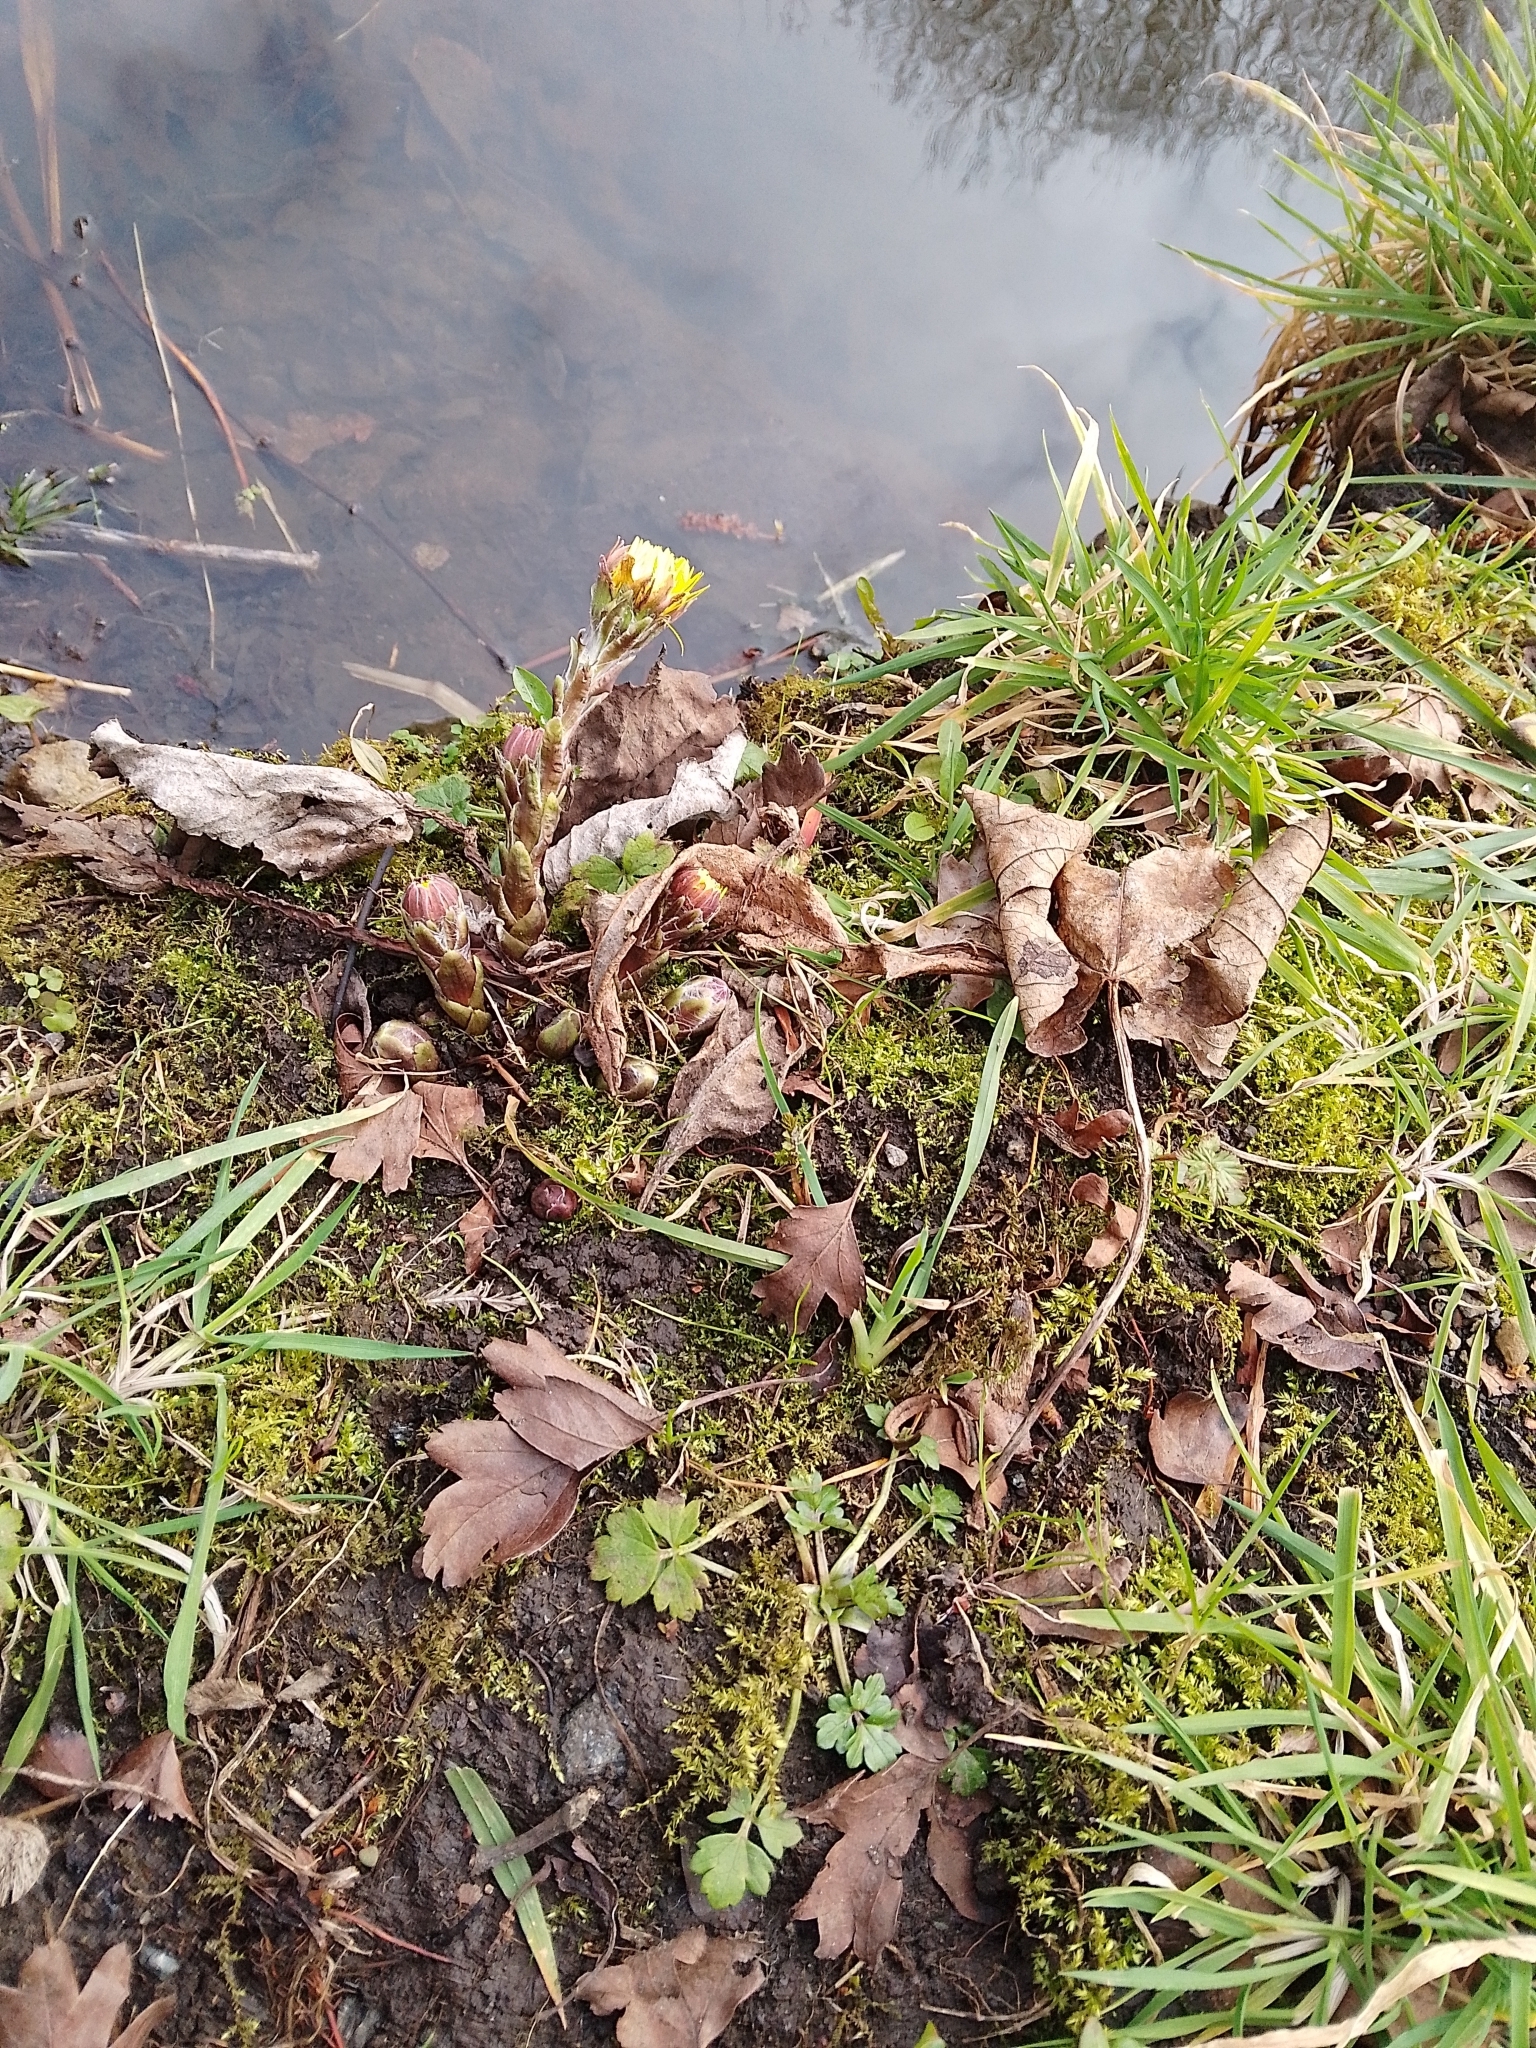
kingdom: Plantae
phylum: Tracheophyta
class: Magnoliopsida
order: Asterales
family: Asteraceae
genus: Tussilago
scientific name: Tussilago farfara
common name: Coltsfoot
